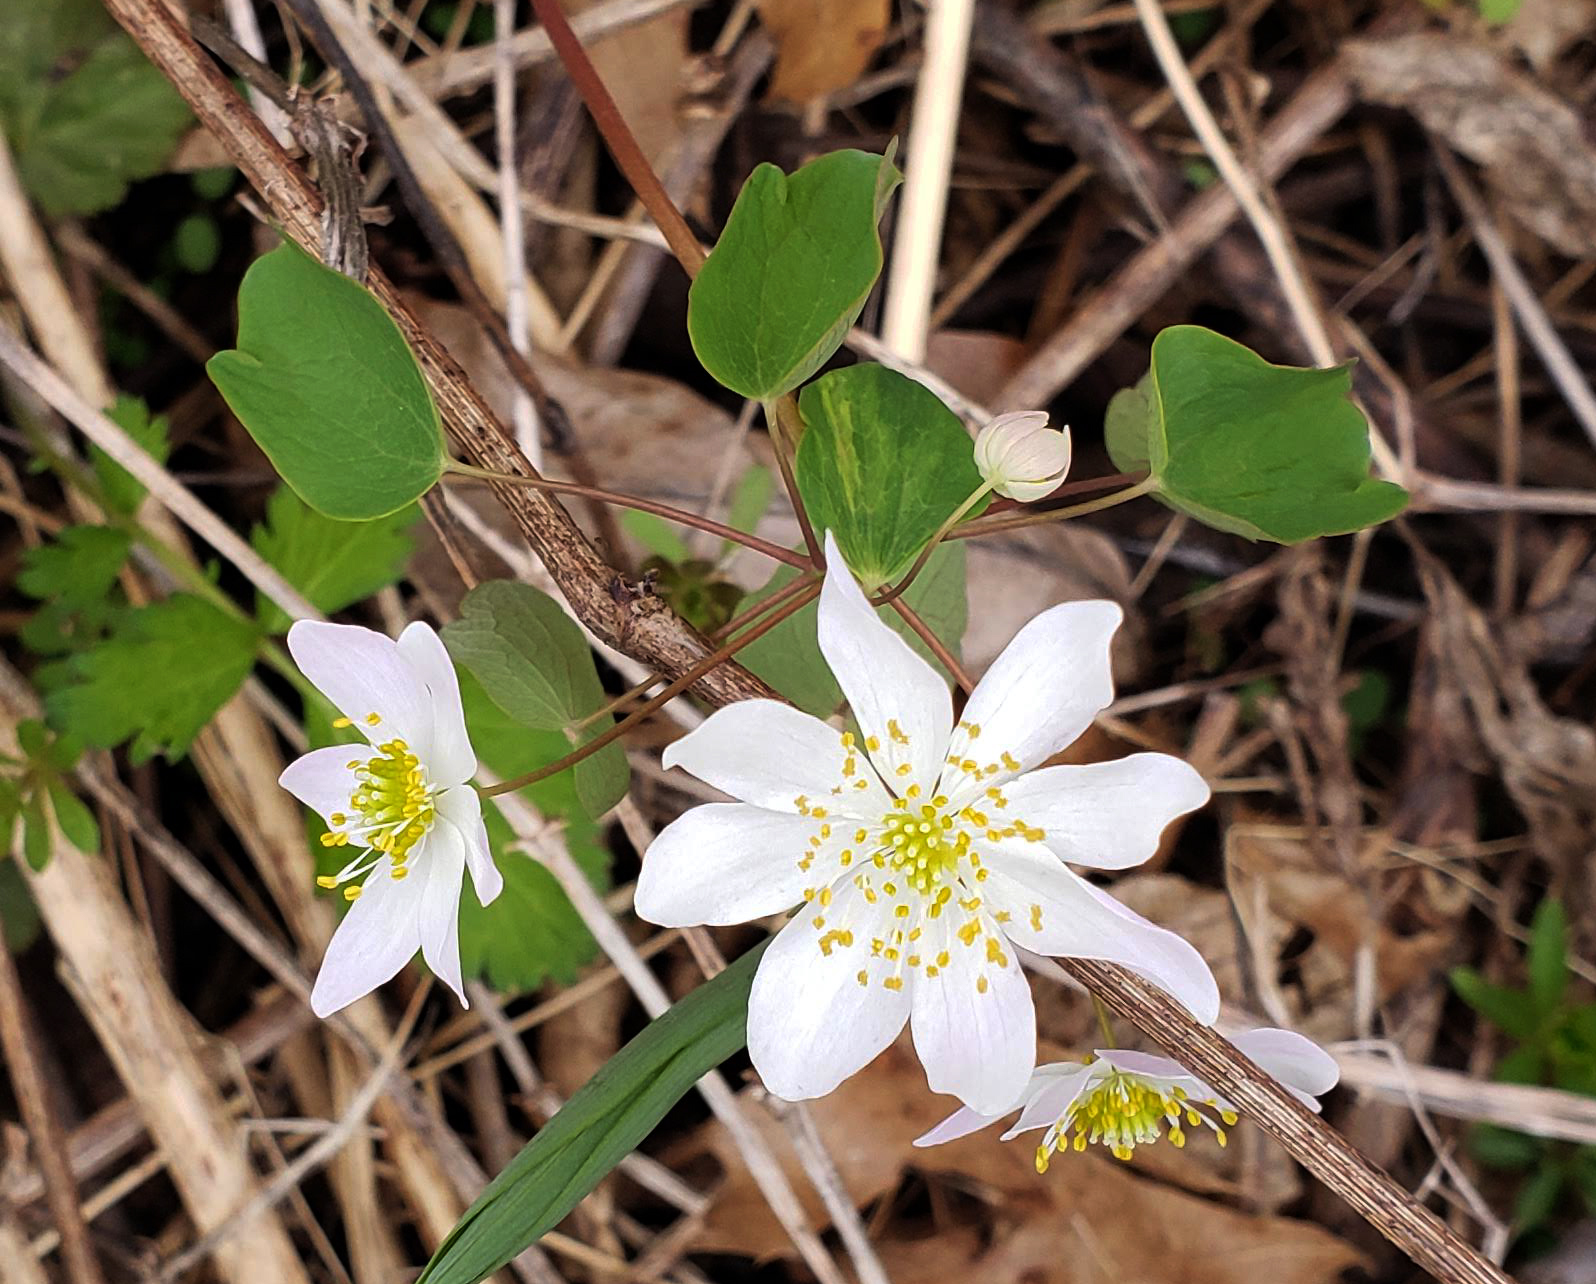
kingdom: Plantae
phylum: Tracheophyta
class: Magnoliopsida
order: Ranunculales
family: Ranunculaceae
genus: Thalictrum
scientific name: Thalictrum thalictroides
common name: Rue-anemone
